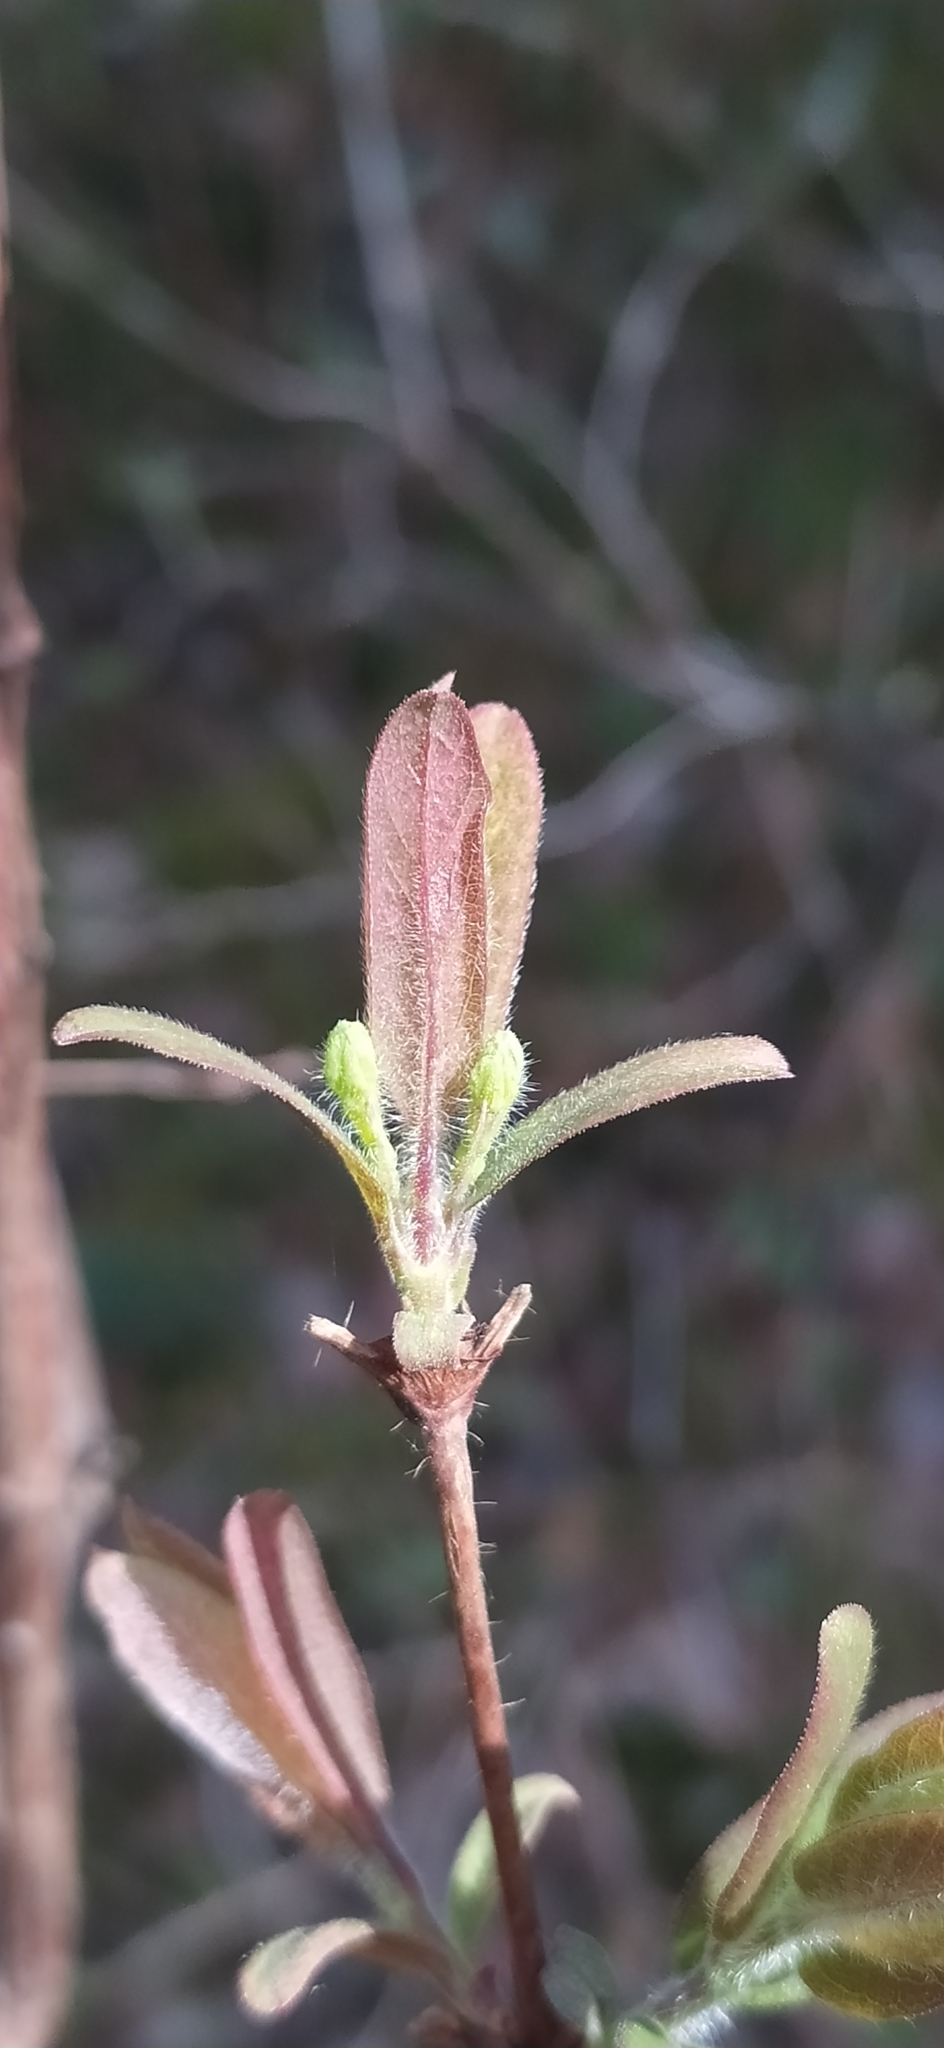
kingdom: Plantae
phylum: Tracheophyta
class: Magnoliopsida
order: Dipsacales
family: Caprifoliaceae
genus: Lonicera
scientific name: Lonicera caerulea
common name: Blue honeysuckle
